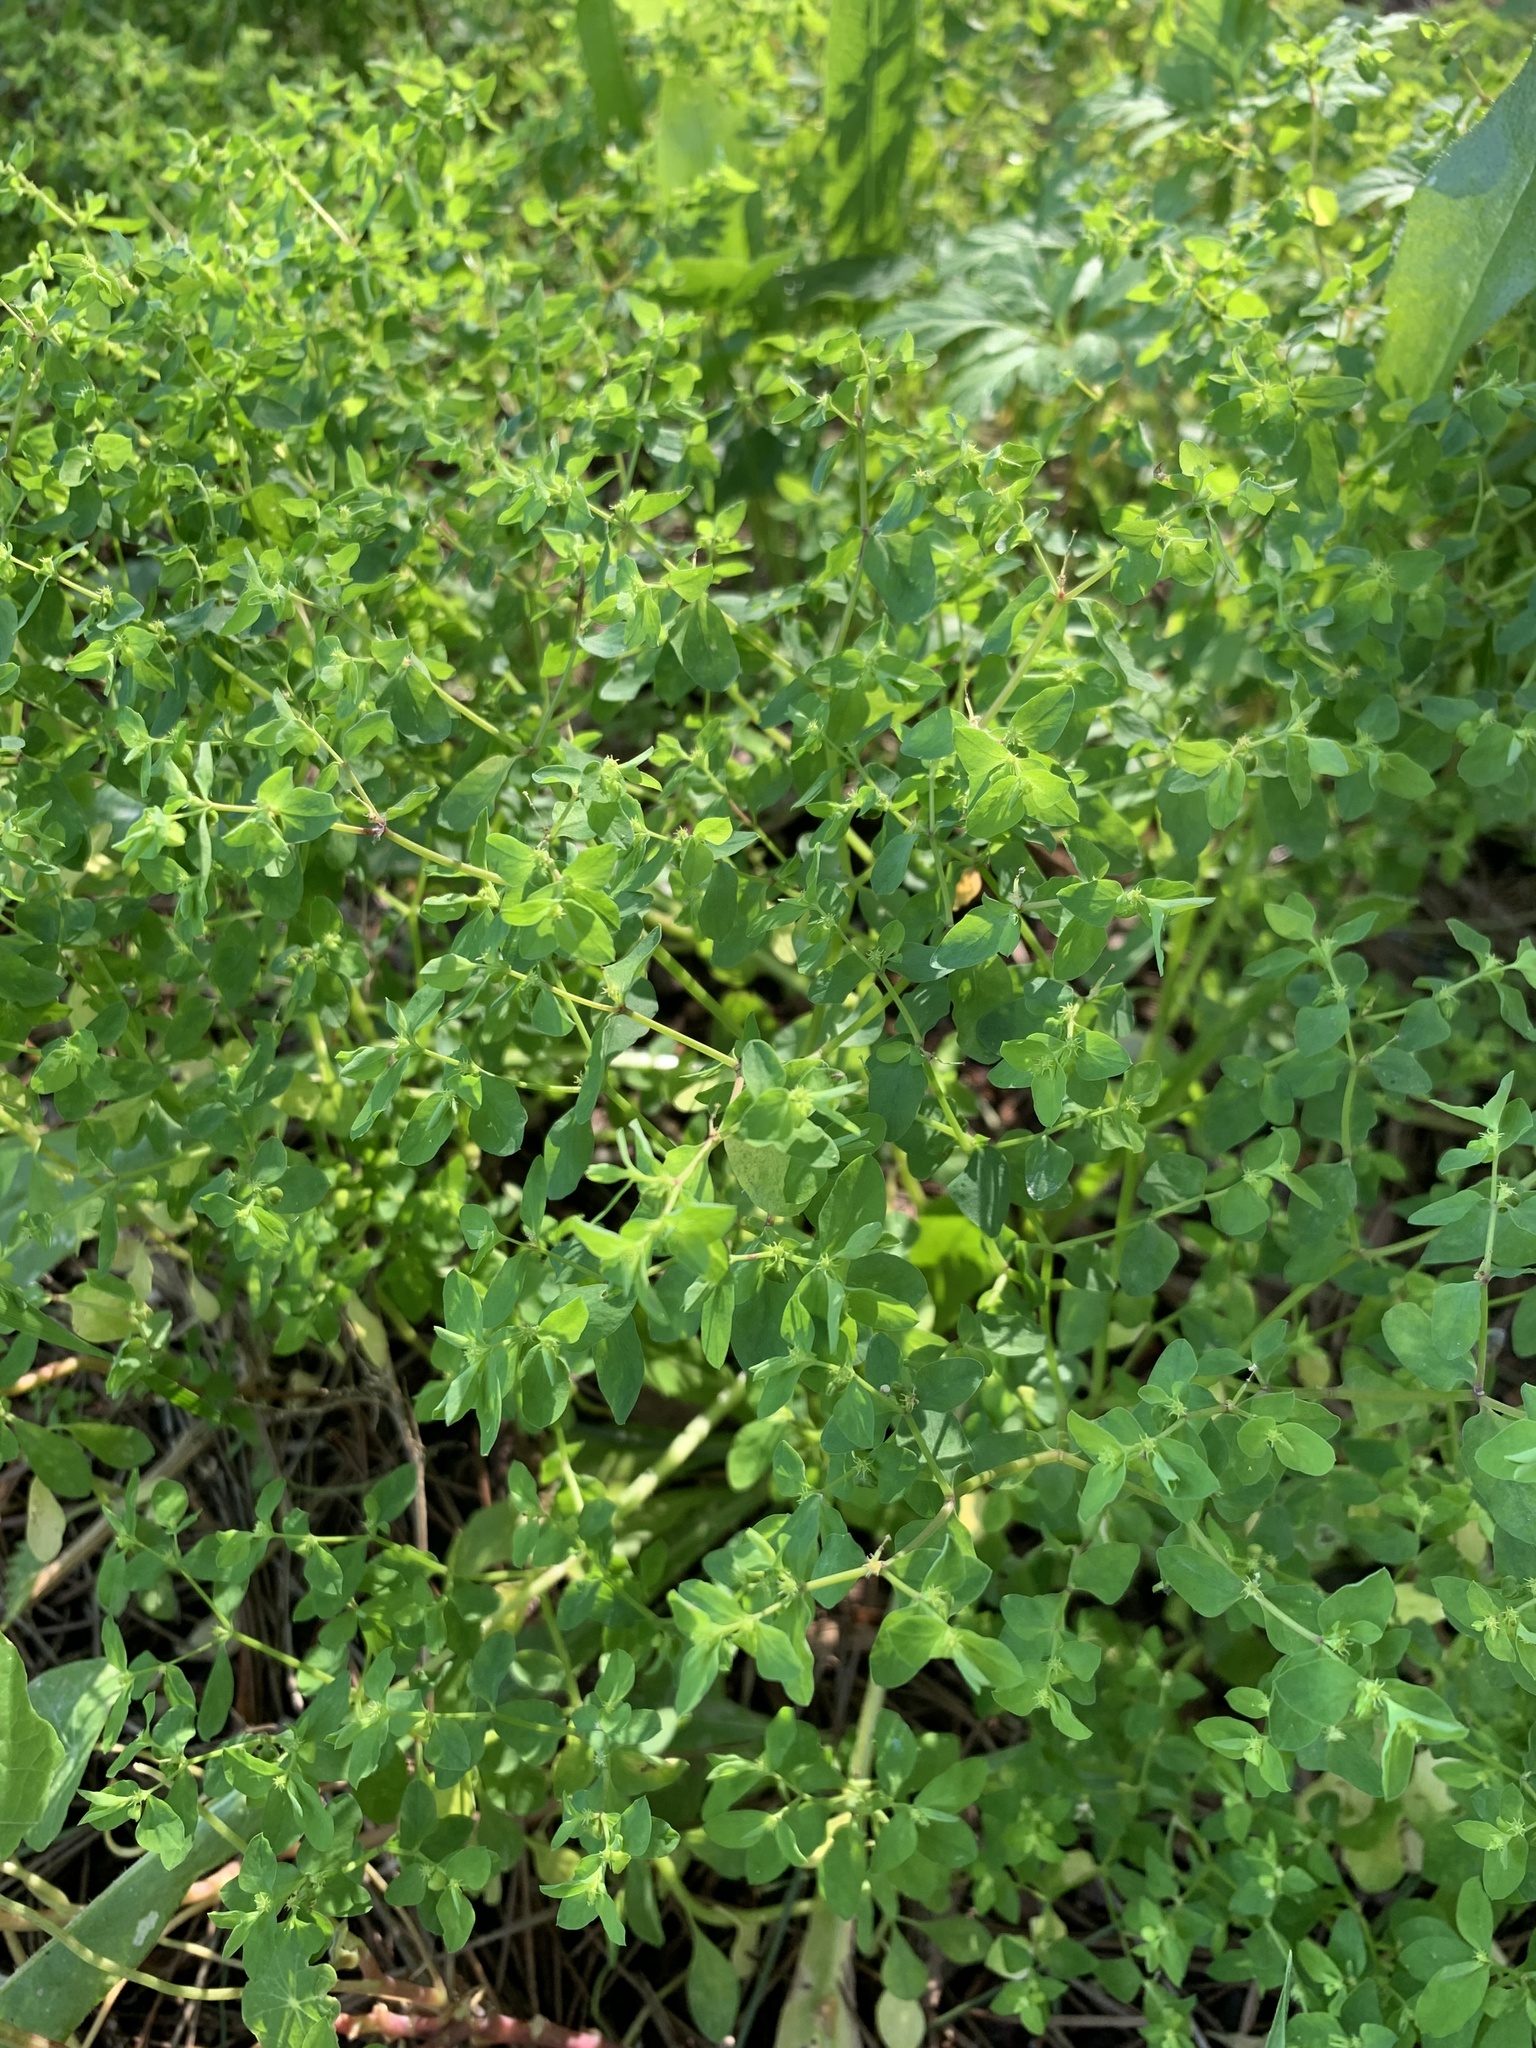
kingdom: Plantae
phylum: Tracheophyta
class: Magnoliopsida
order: Malpighiales
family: Euphorbiaceae
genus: Euphorbia
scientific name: Euphorbia peplus
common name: Petty spurge
